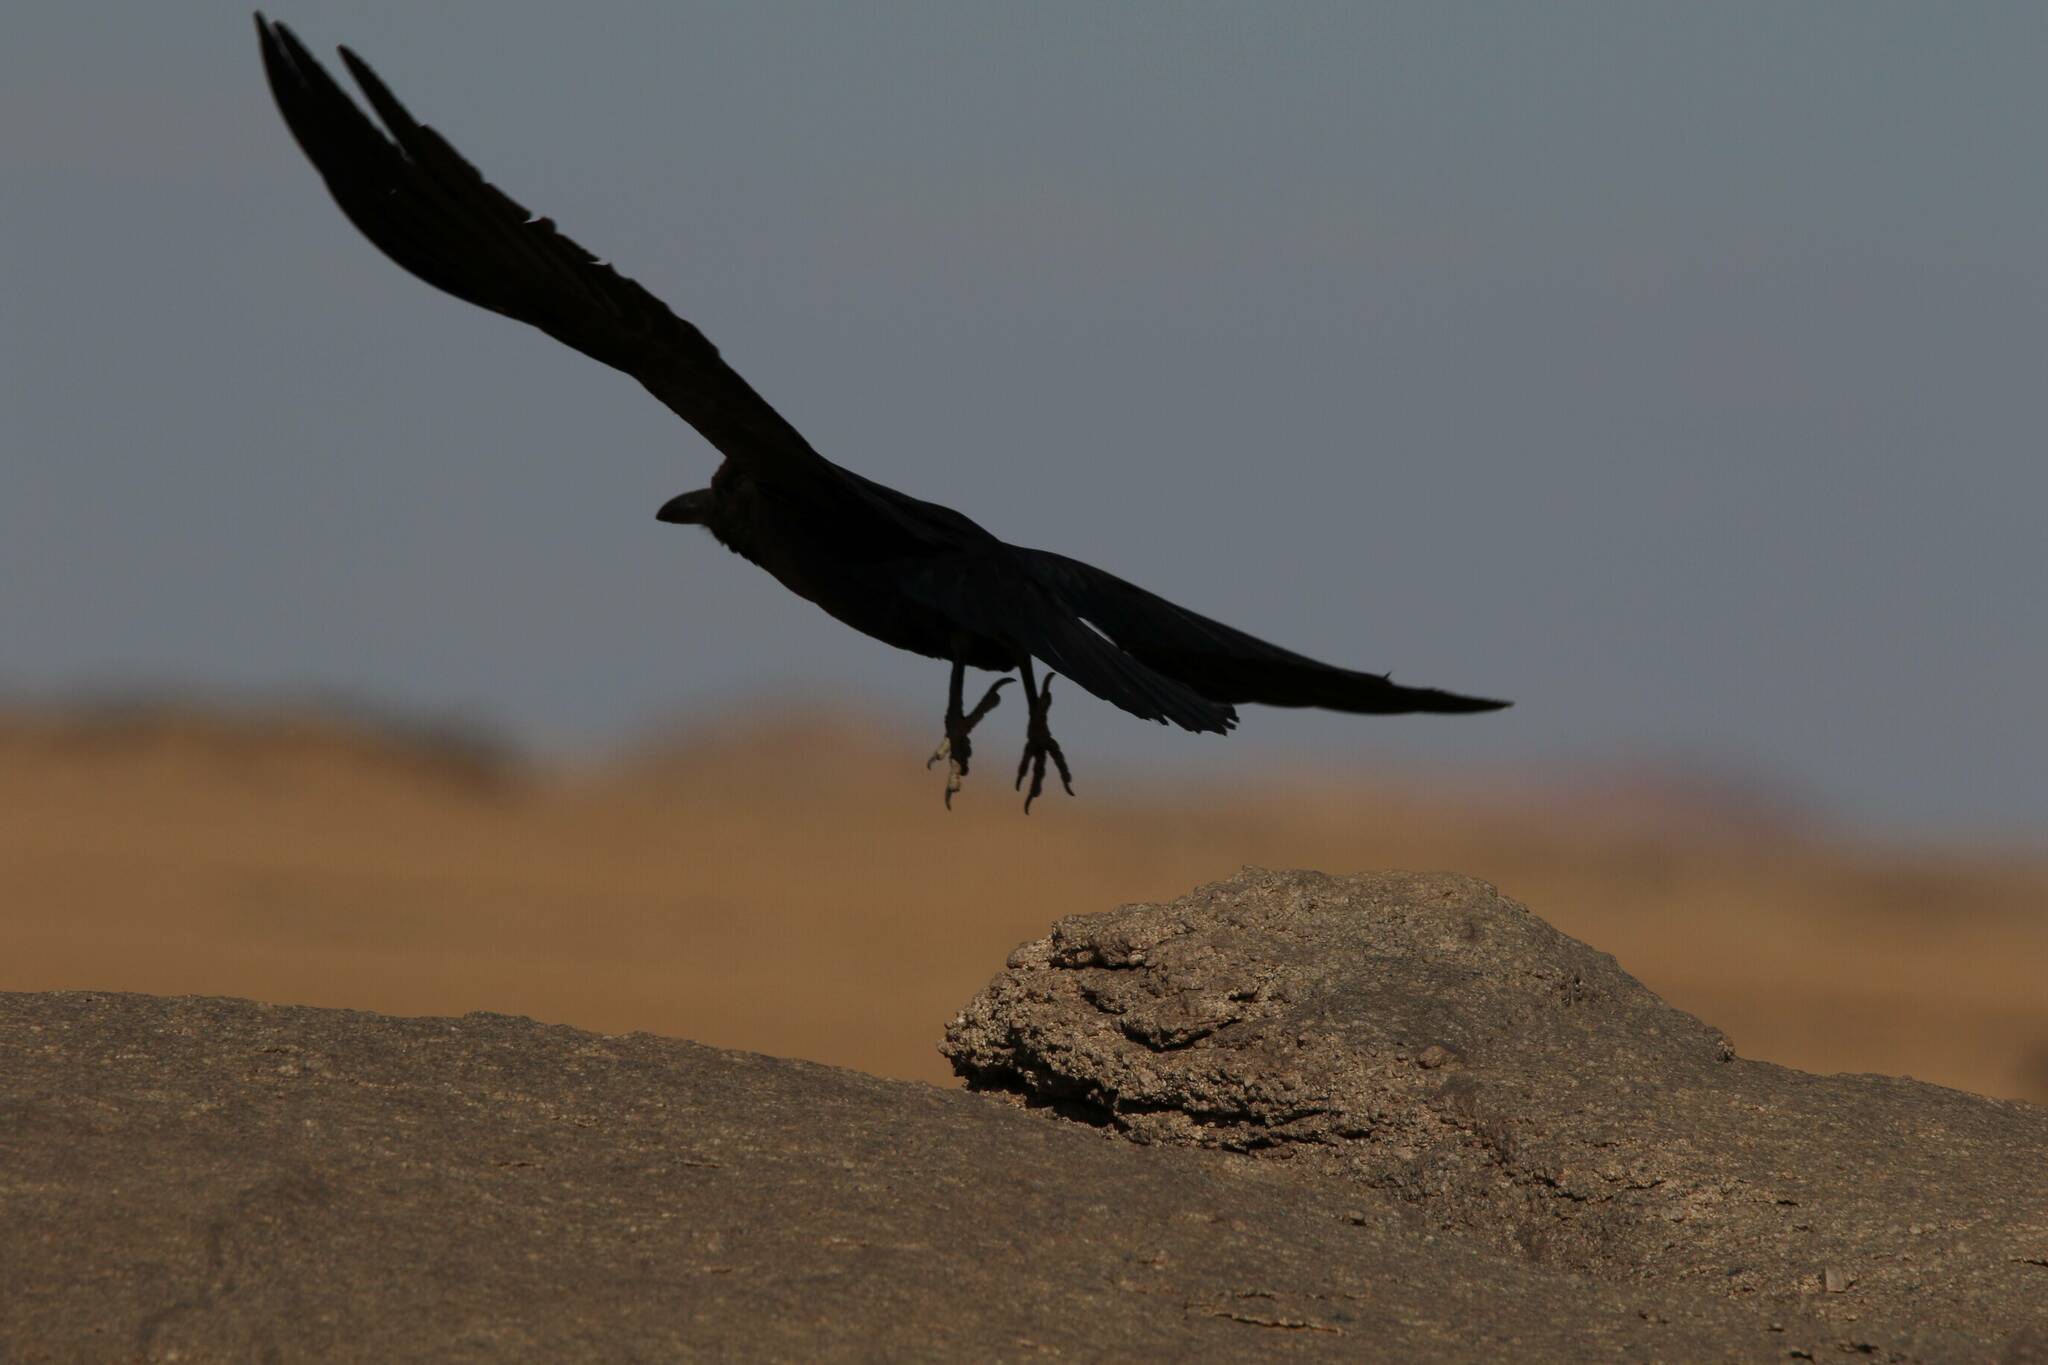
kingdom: Animalia
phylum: Chordata
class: Aves
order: Passeriformes
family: Corvidae
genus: Corvus
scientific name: Corvus ruficollis
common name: Brown-necked raven
